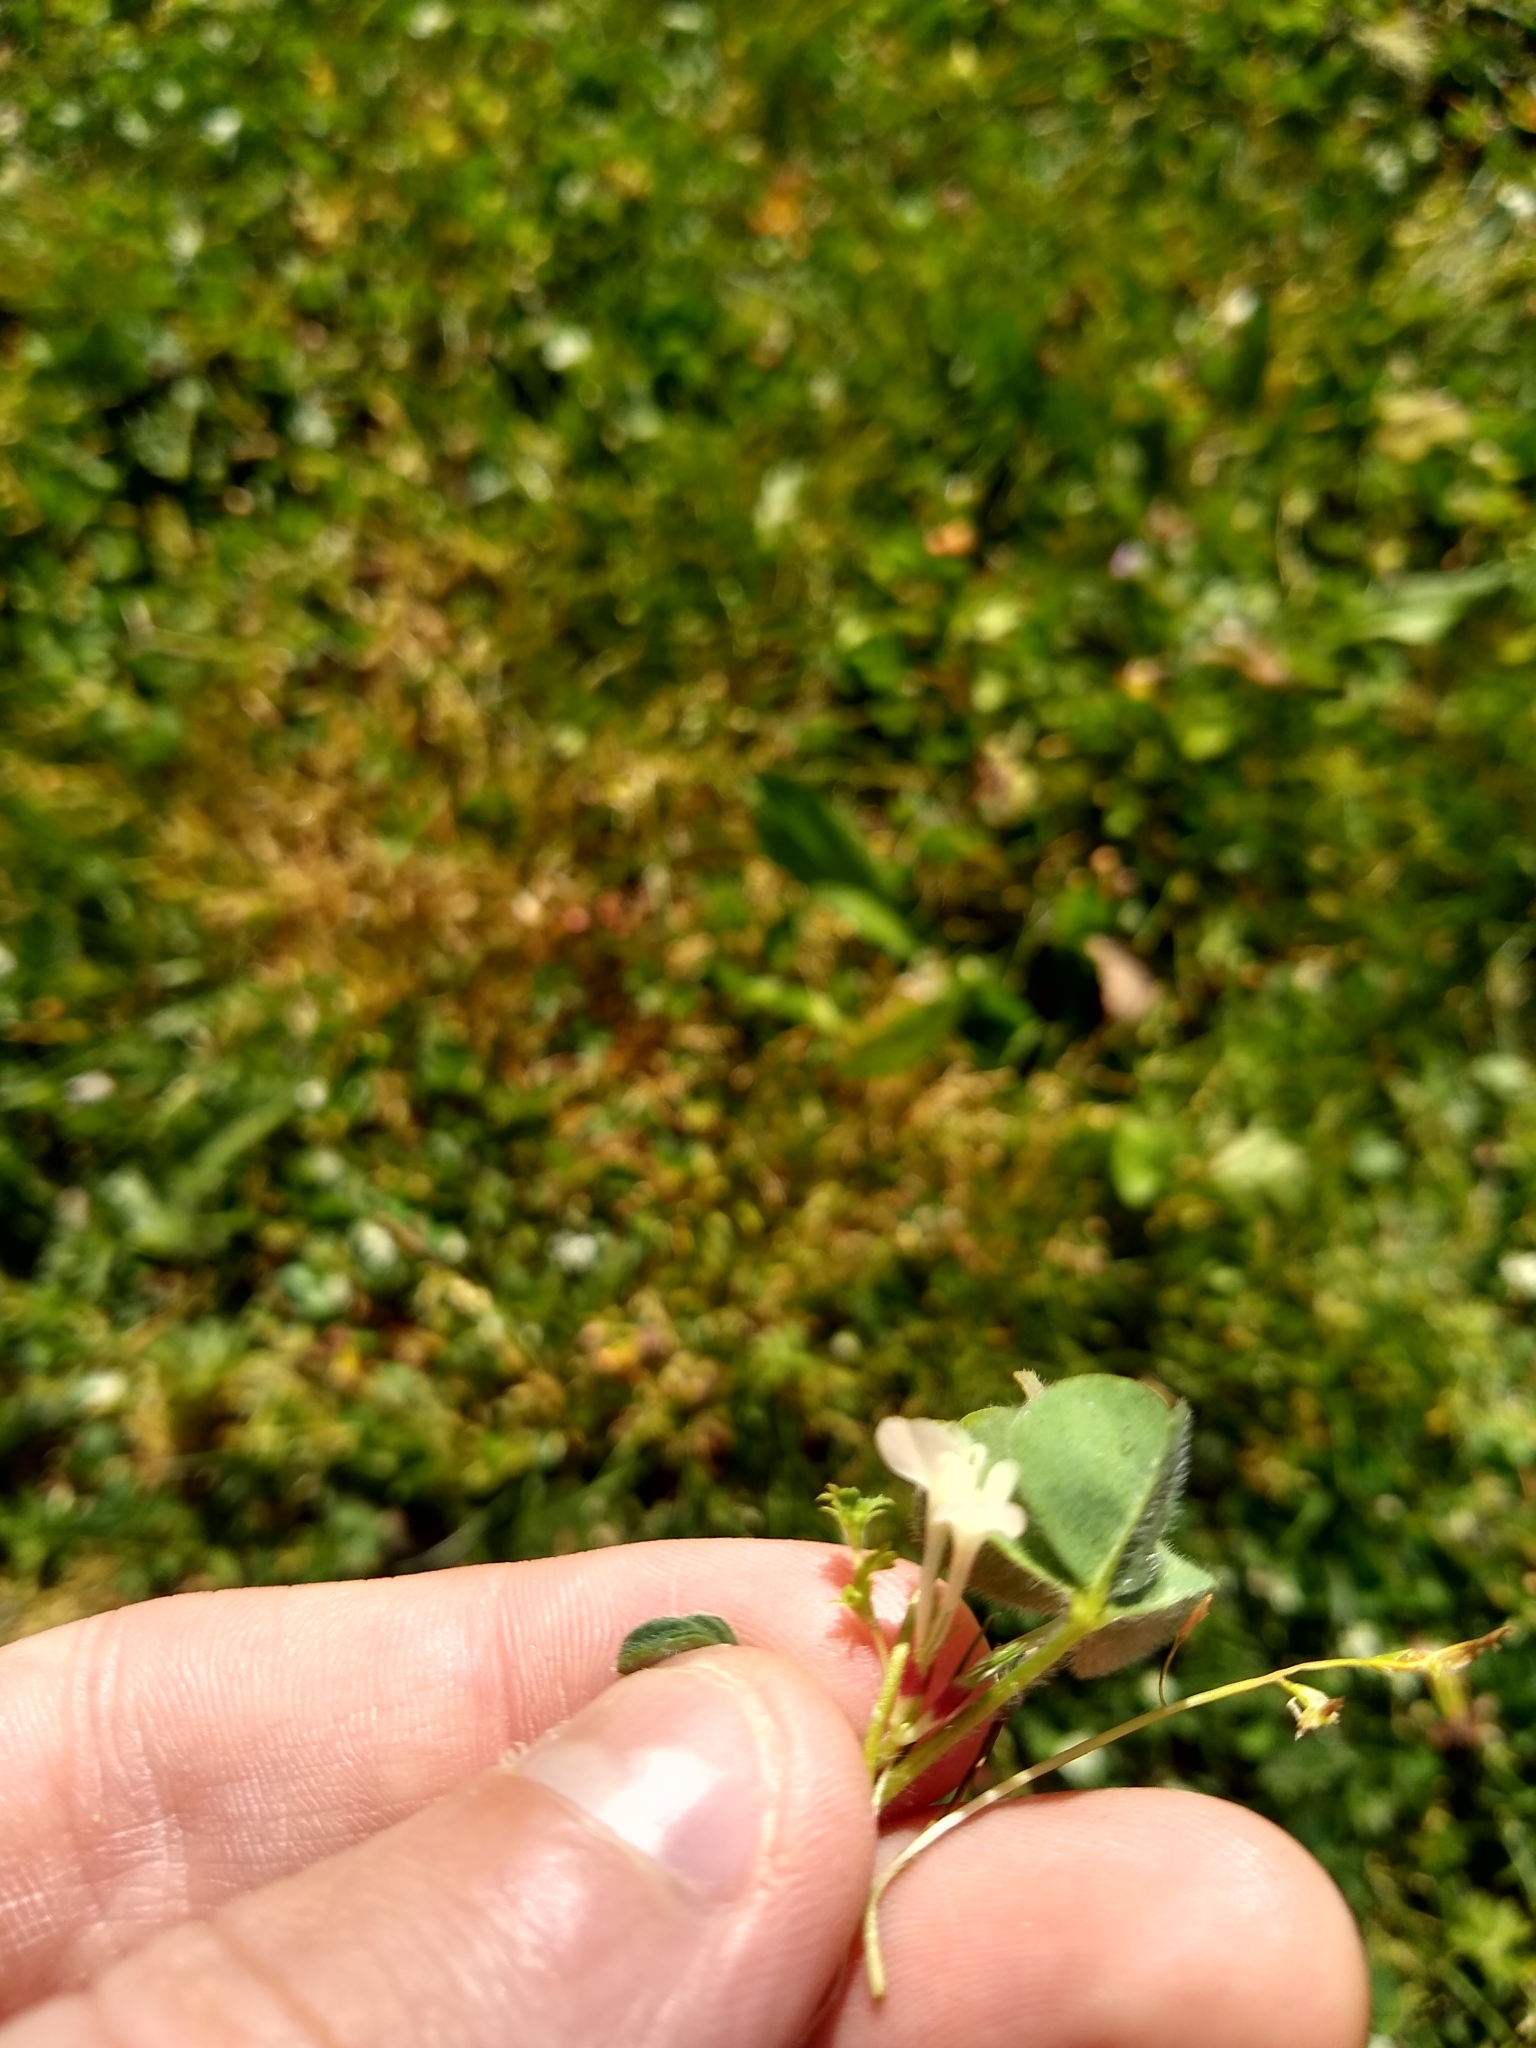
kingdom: Plantae
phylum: Tracheophyta
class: Magnoliopsida
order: Fabales
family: Fabaceae
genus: Trifolium
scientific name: Trifolium subterraneum
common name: Subterranean clover
